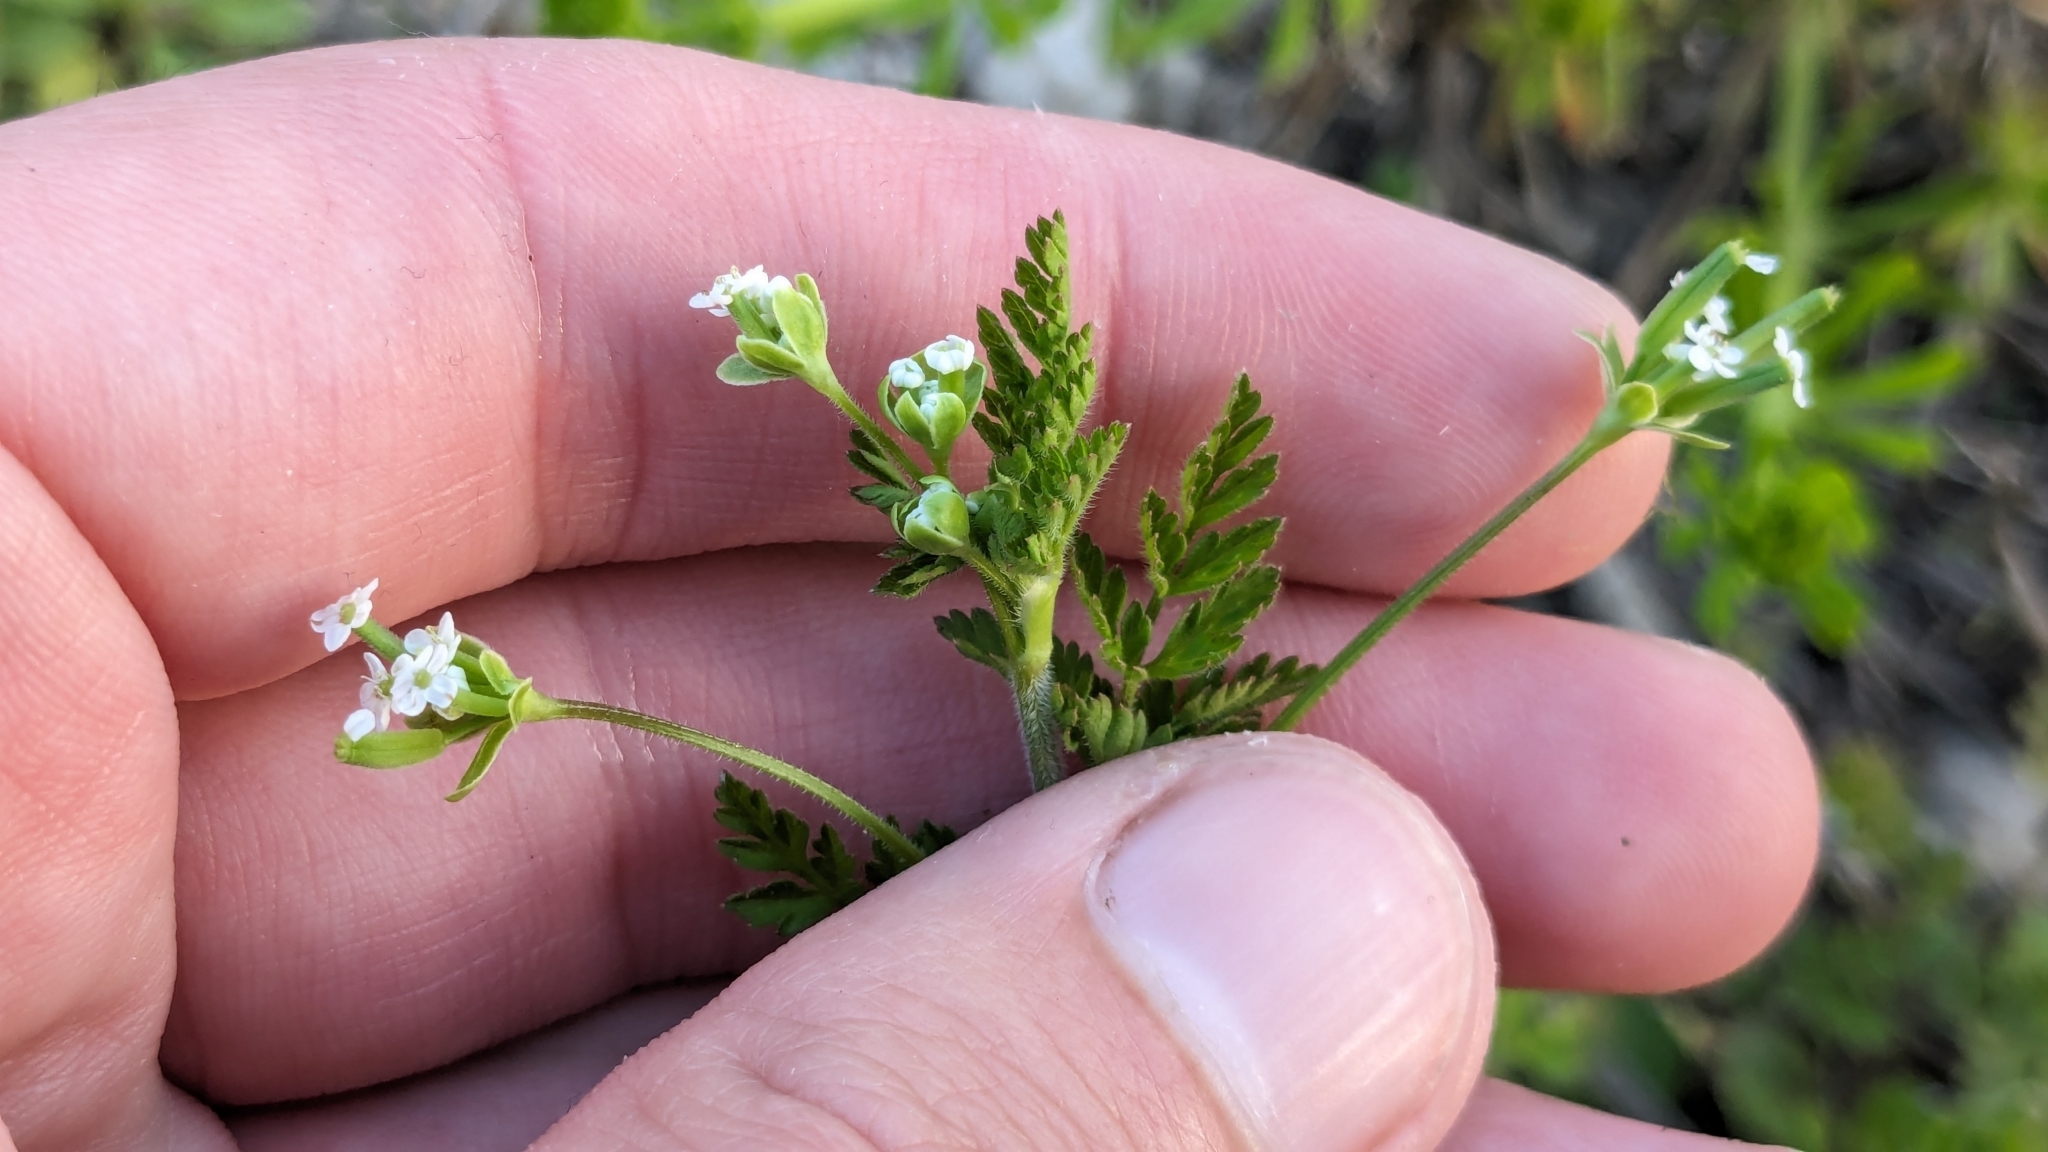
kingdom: Plantae
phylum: Tracheophyta
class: Magnoliopsida
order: Apiales
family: Apiaceae
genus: Chaerophyllum
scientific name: Chaerophyllum tainturieri
